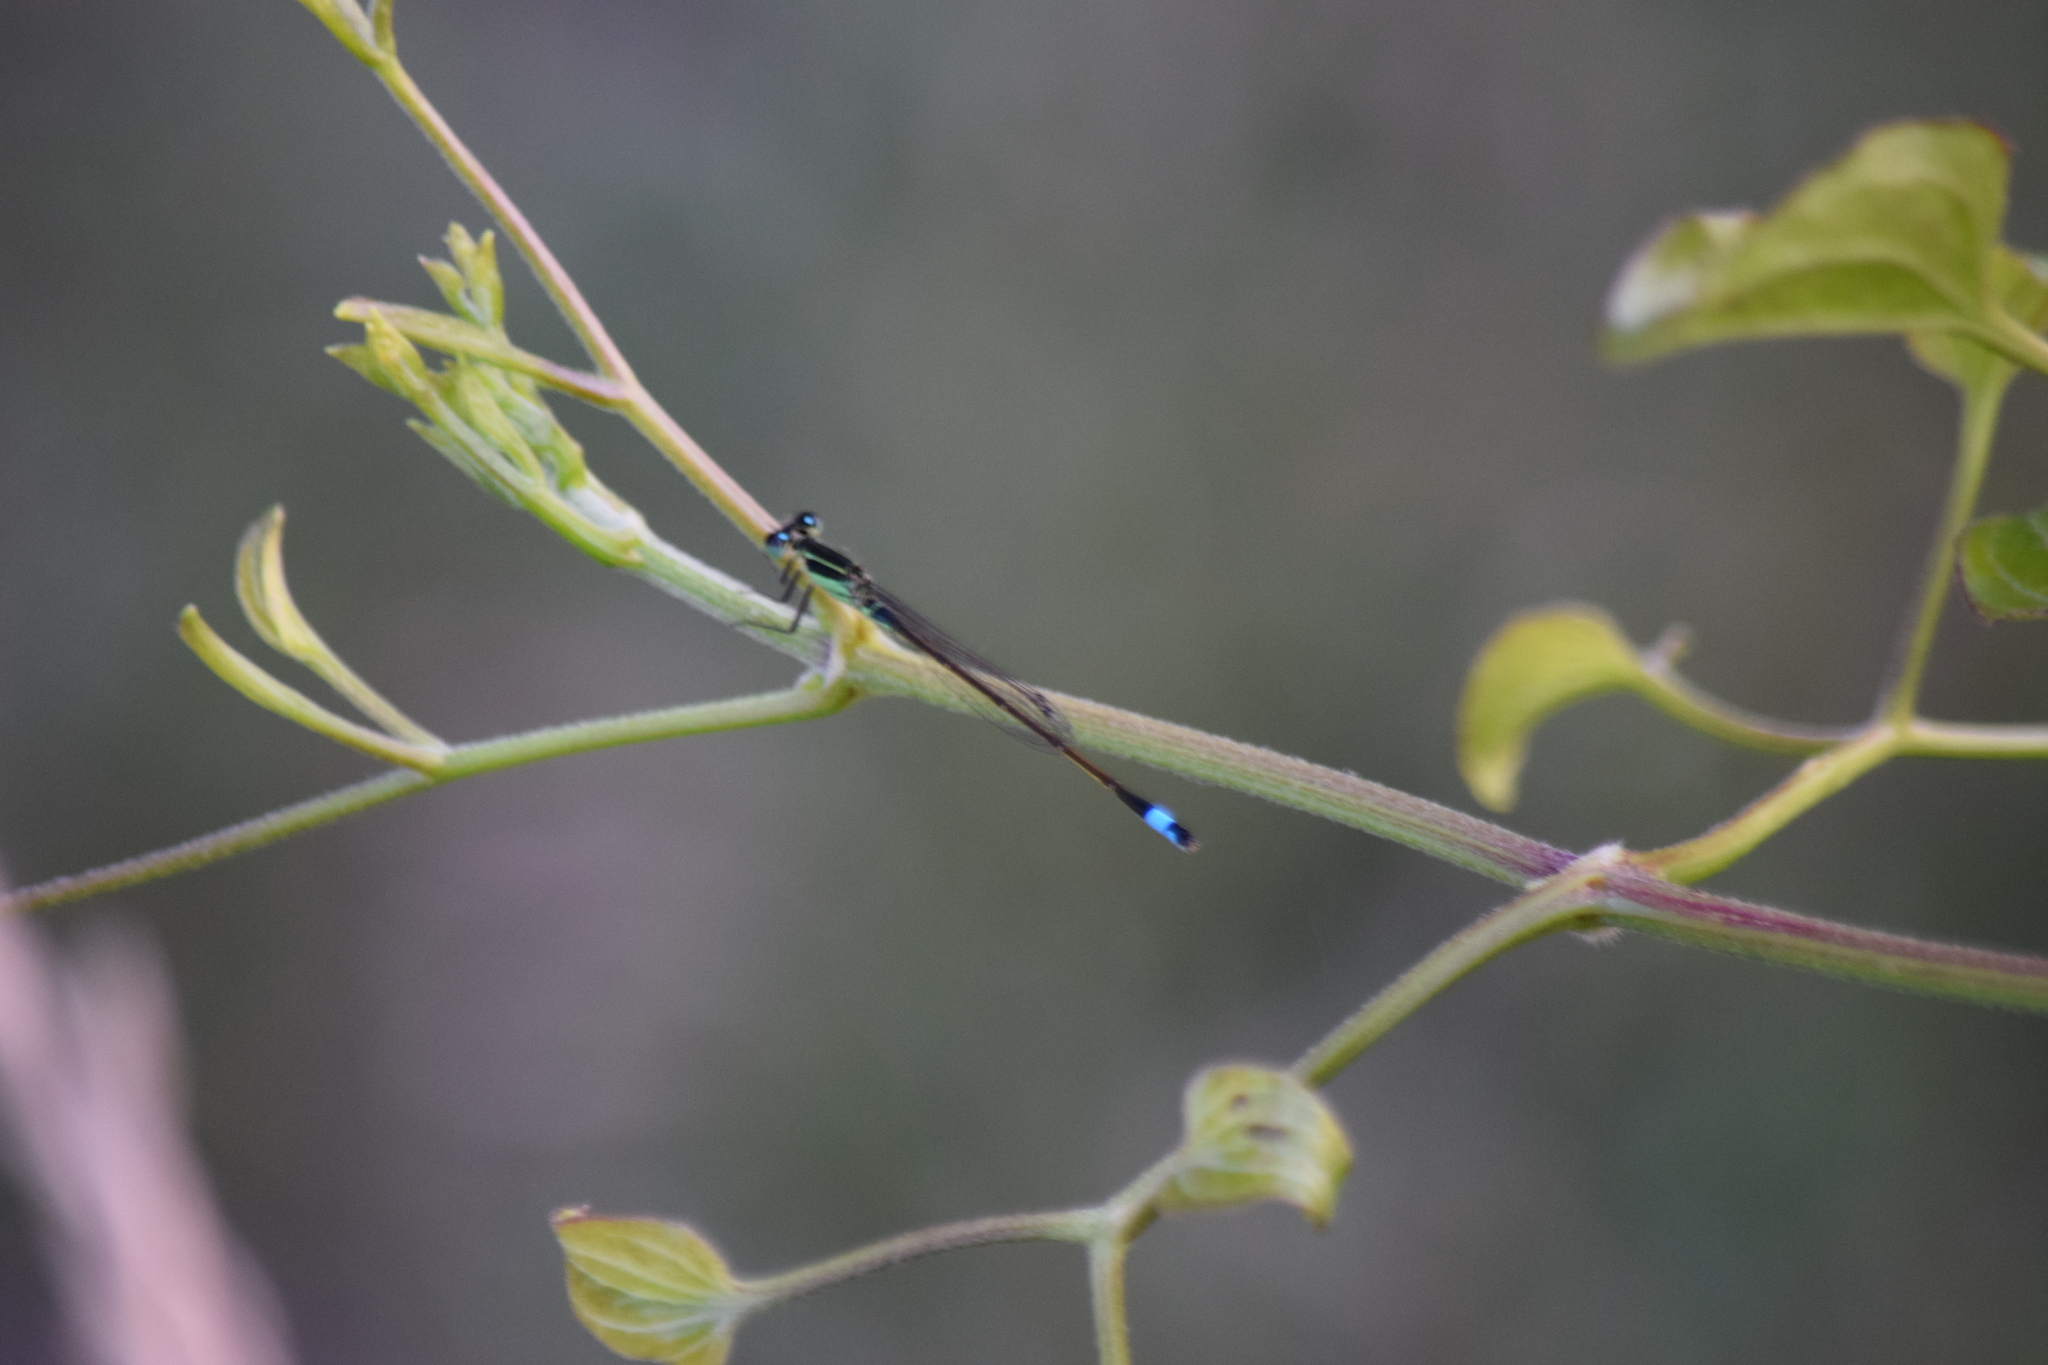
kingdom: Animalia
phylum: Arthropoda
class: Insecta
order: Odonata
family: Coenagrionidae
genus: Ischnura
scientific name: Ischnura ramburii
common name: Rambur's forktail
